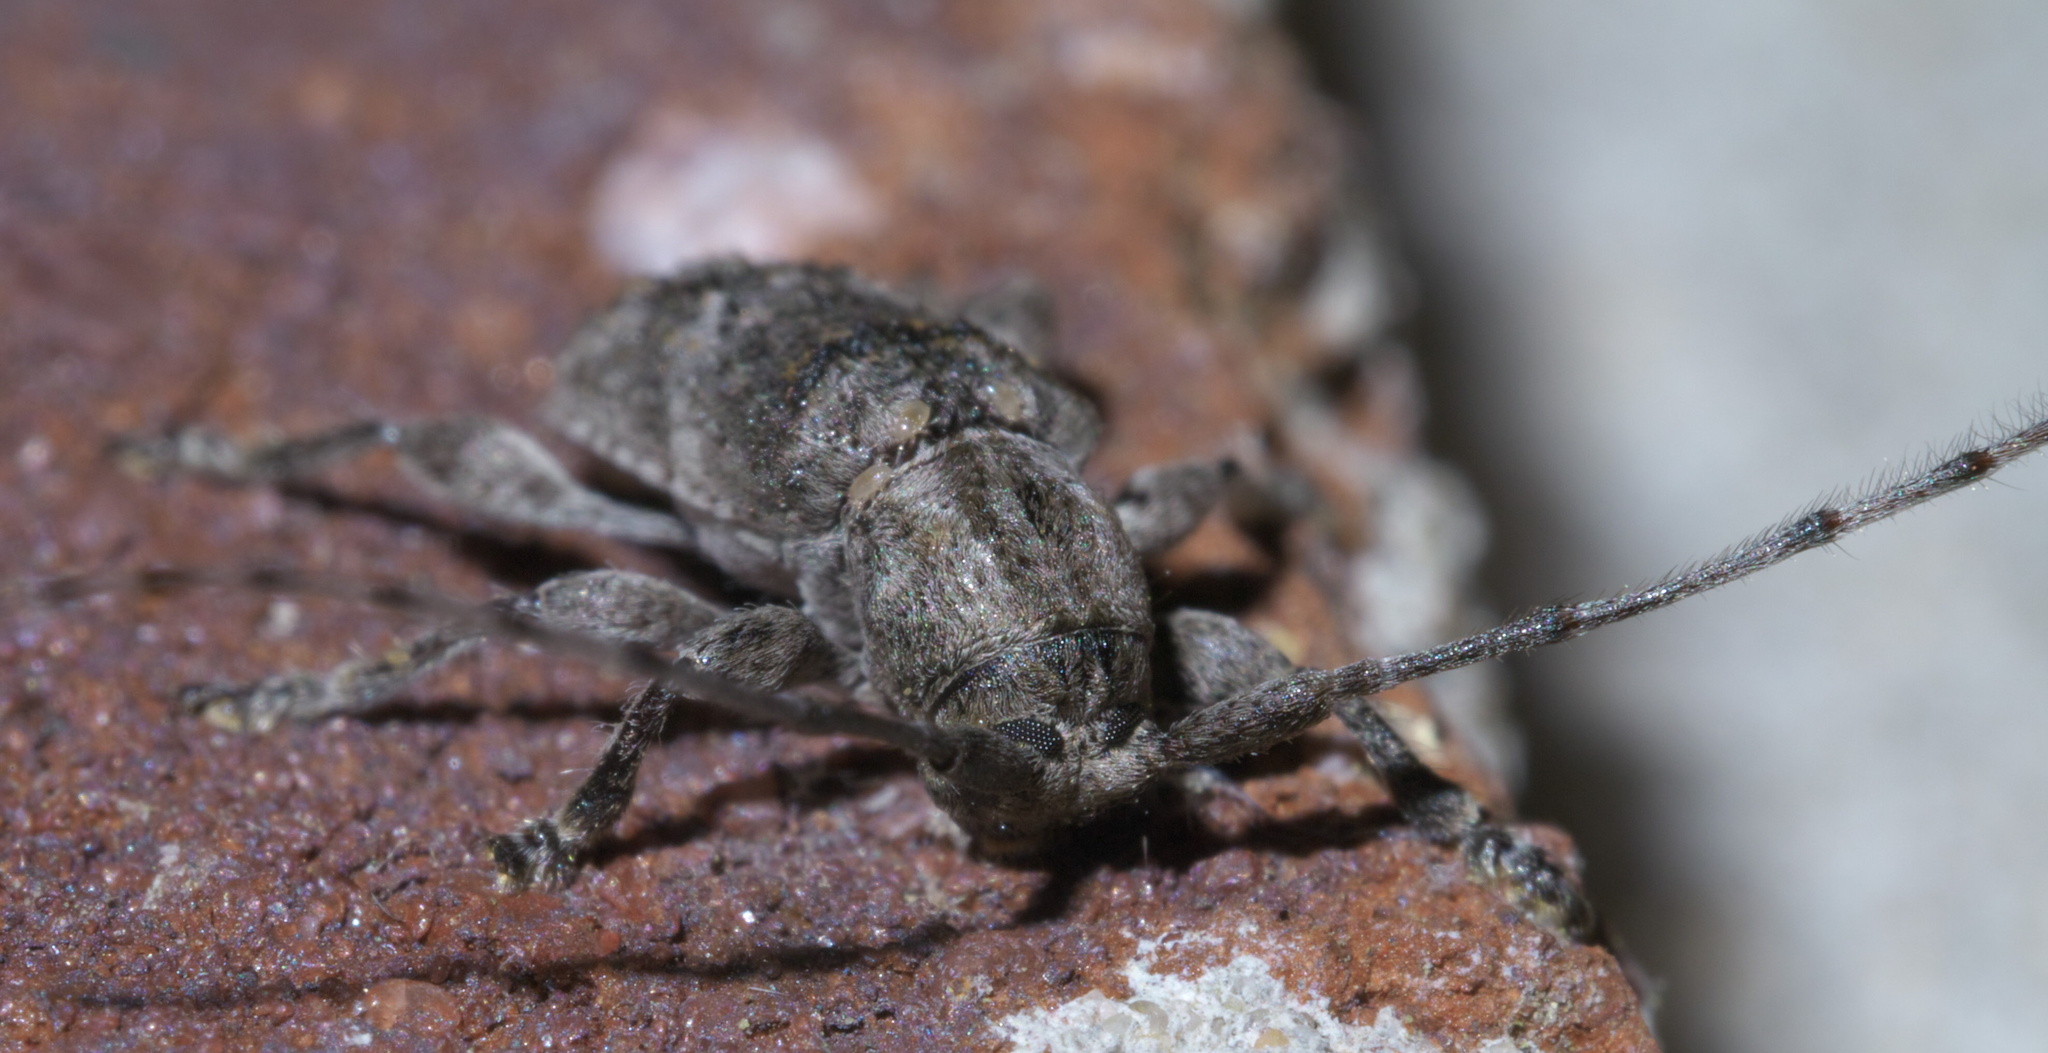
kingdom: Animalia
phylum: Arthropoda
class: Insecta
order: Coleoptera
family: Cerambycidae
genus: Ecyrus
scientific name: Ecyrus dasycerus
